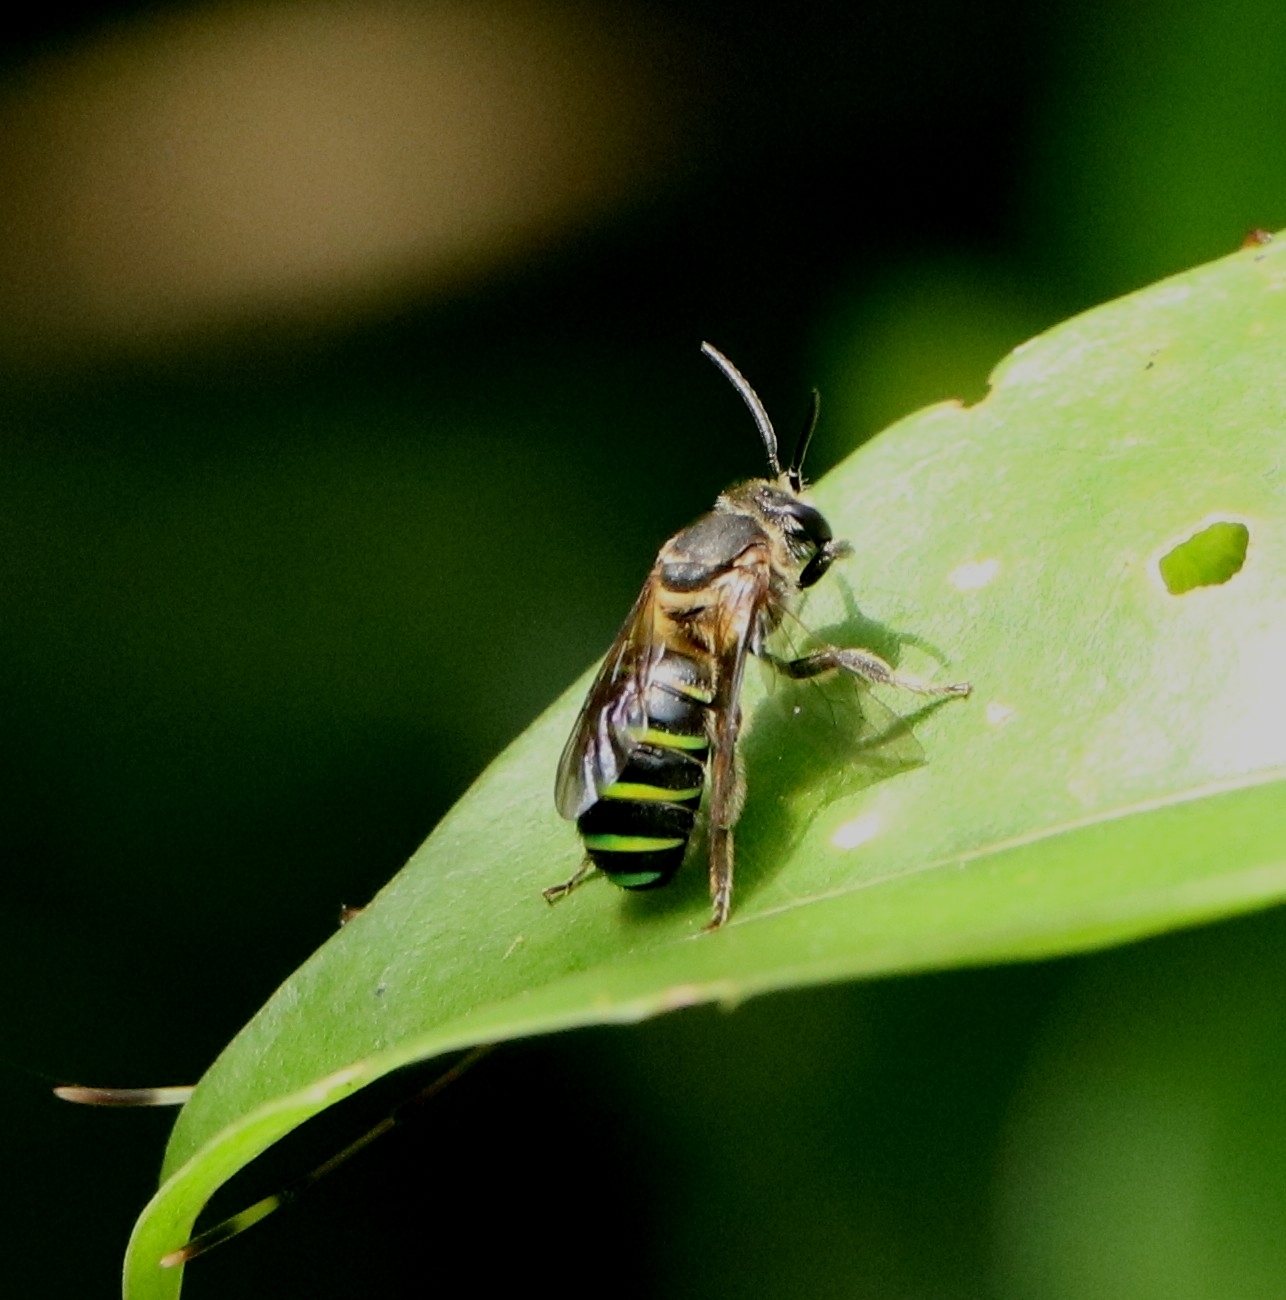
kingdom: Animalia
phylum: Arthropoda
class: Insecta
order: Hymenoptera
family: Halictidae
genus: Nomia
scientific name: Nomia strigata
